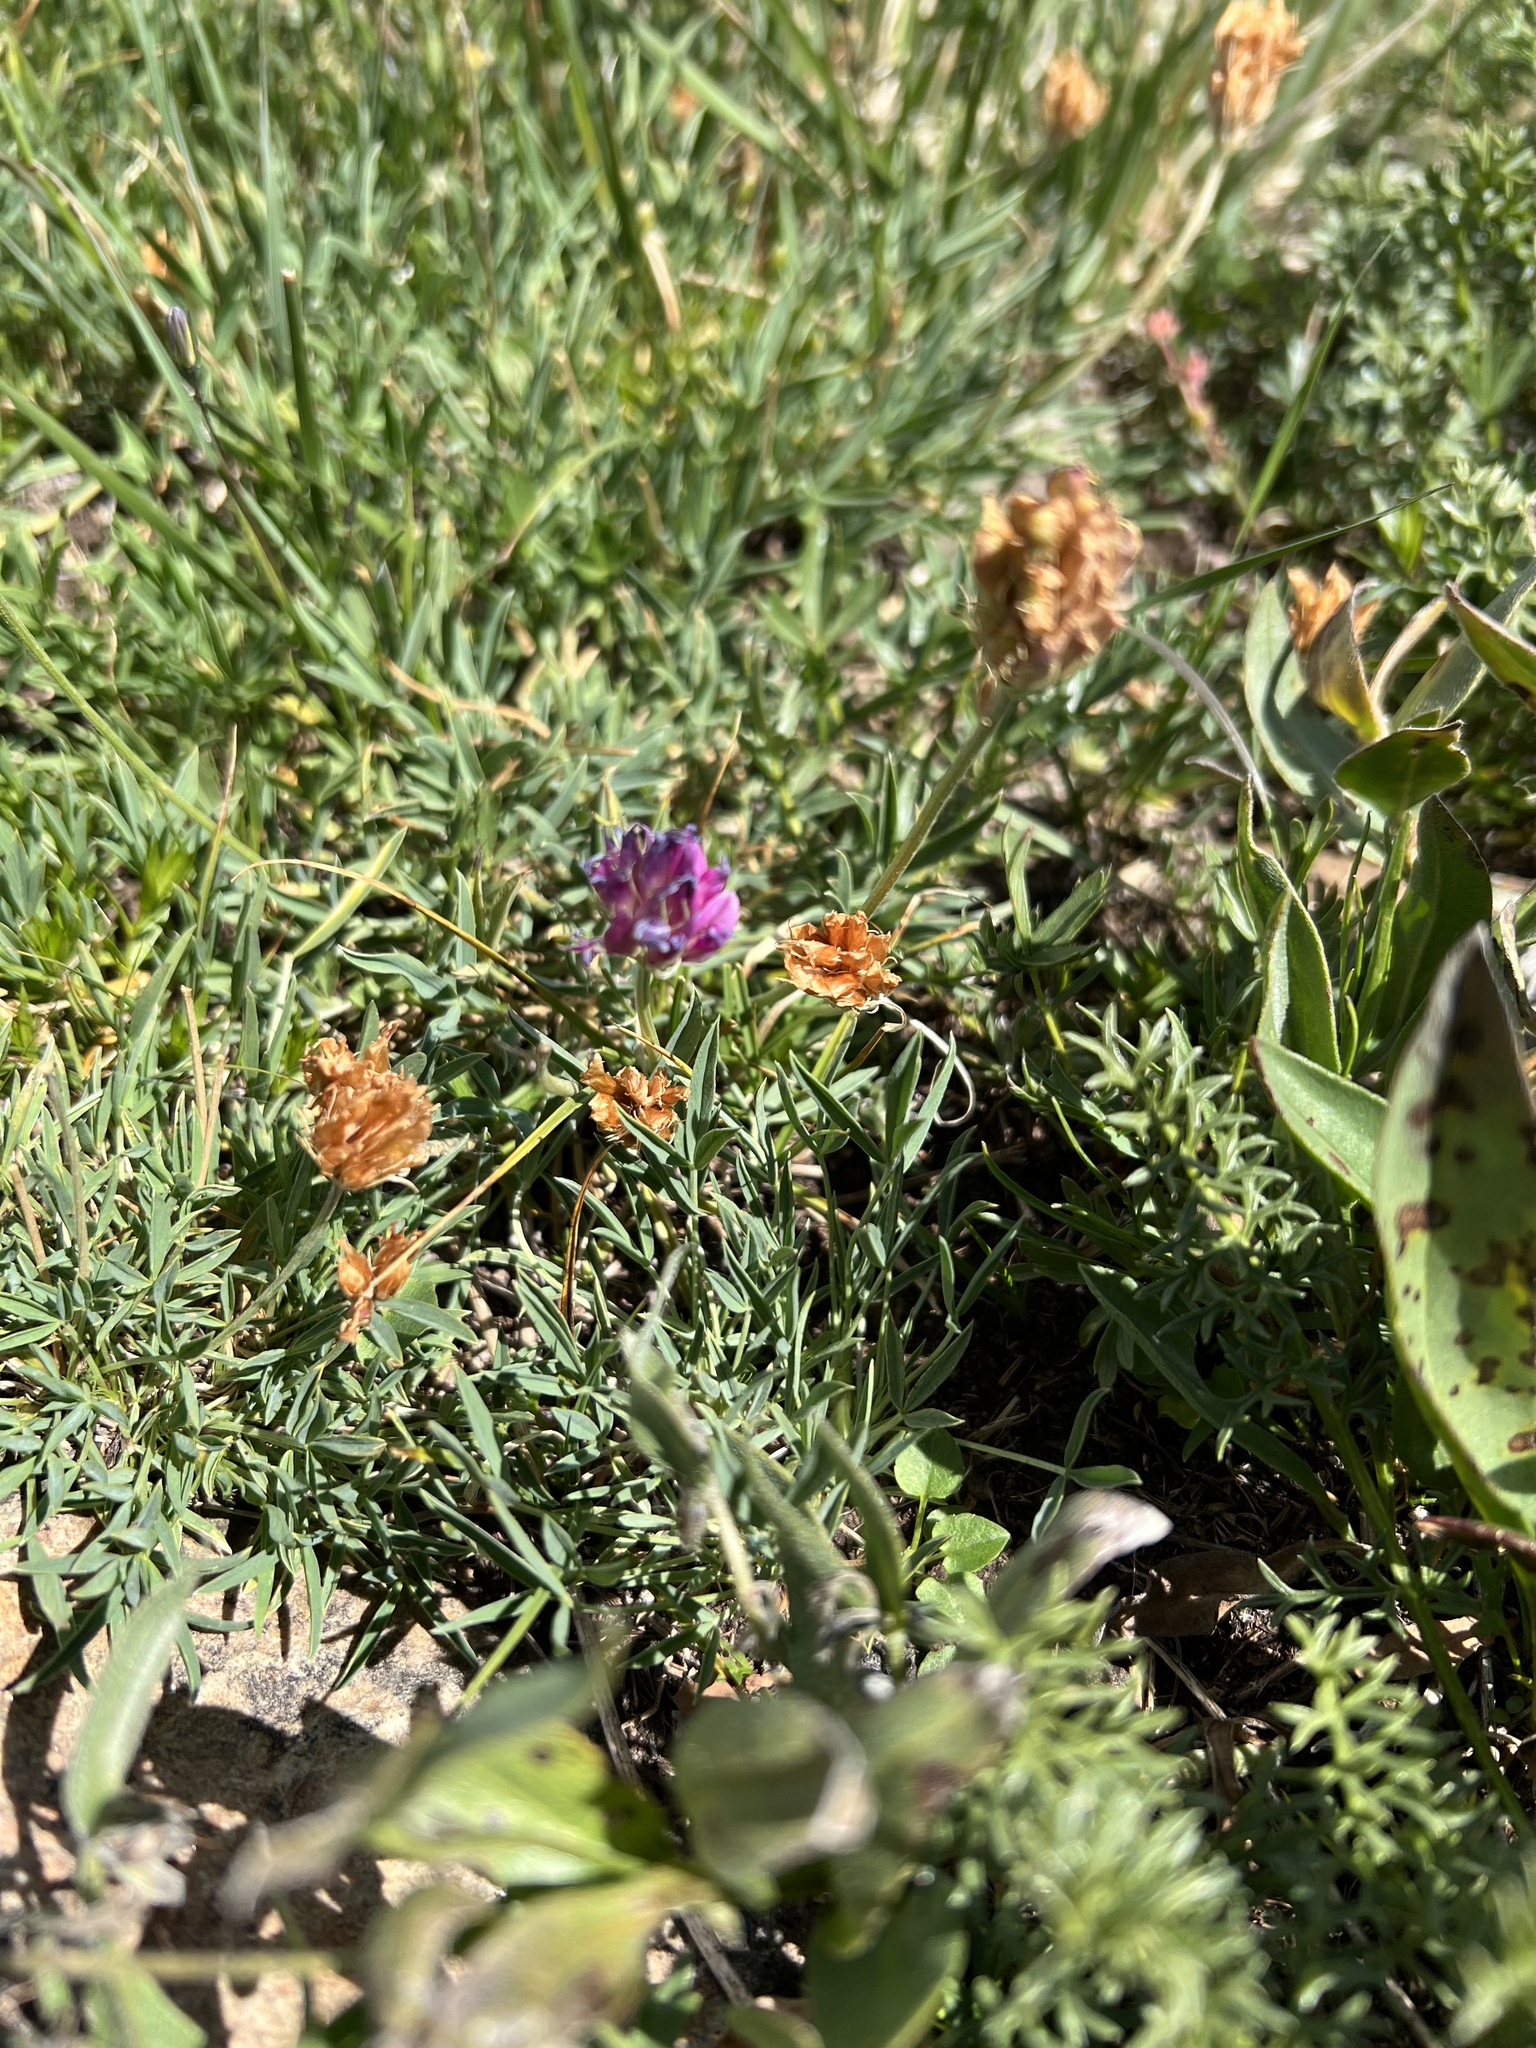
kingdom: Plantae
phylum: Tracheophyta
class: Magnoliopsida
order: Fabales
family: Fabaceae
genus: Trifolium
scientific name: Trifolium parryi
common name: Parry's clover
